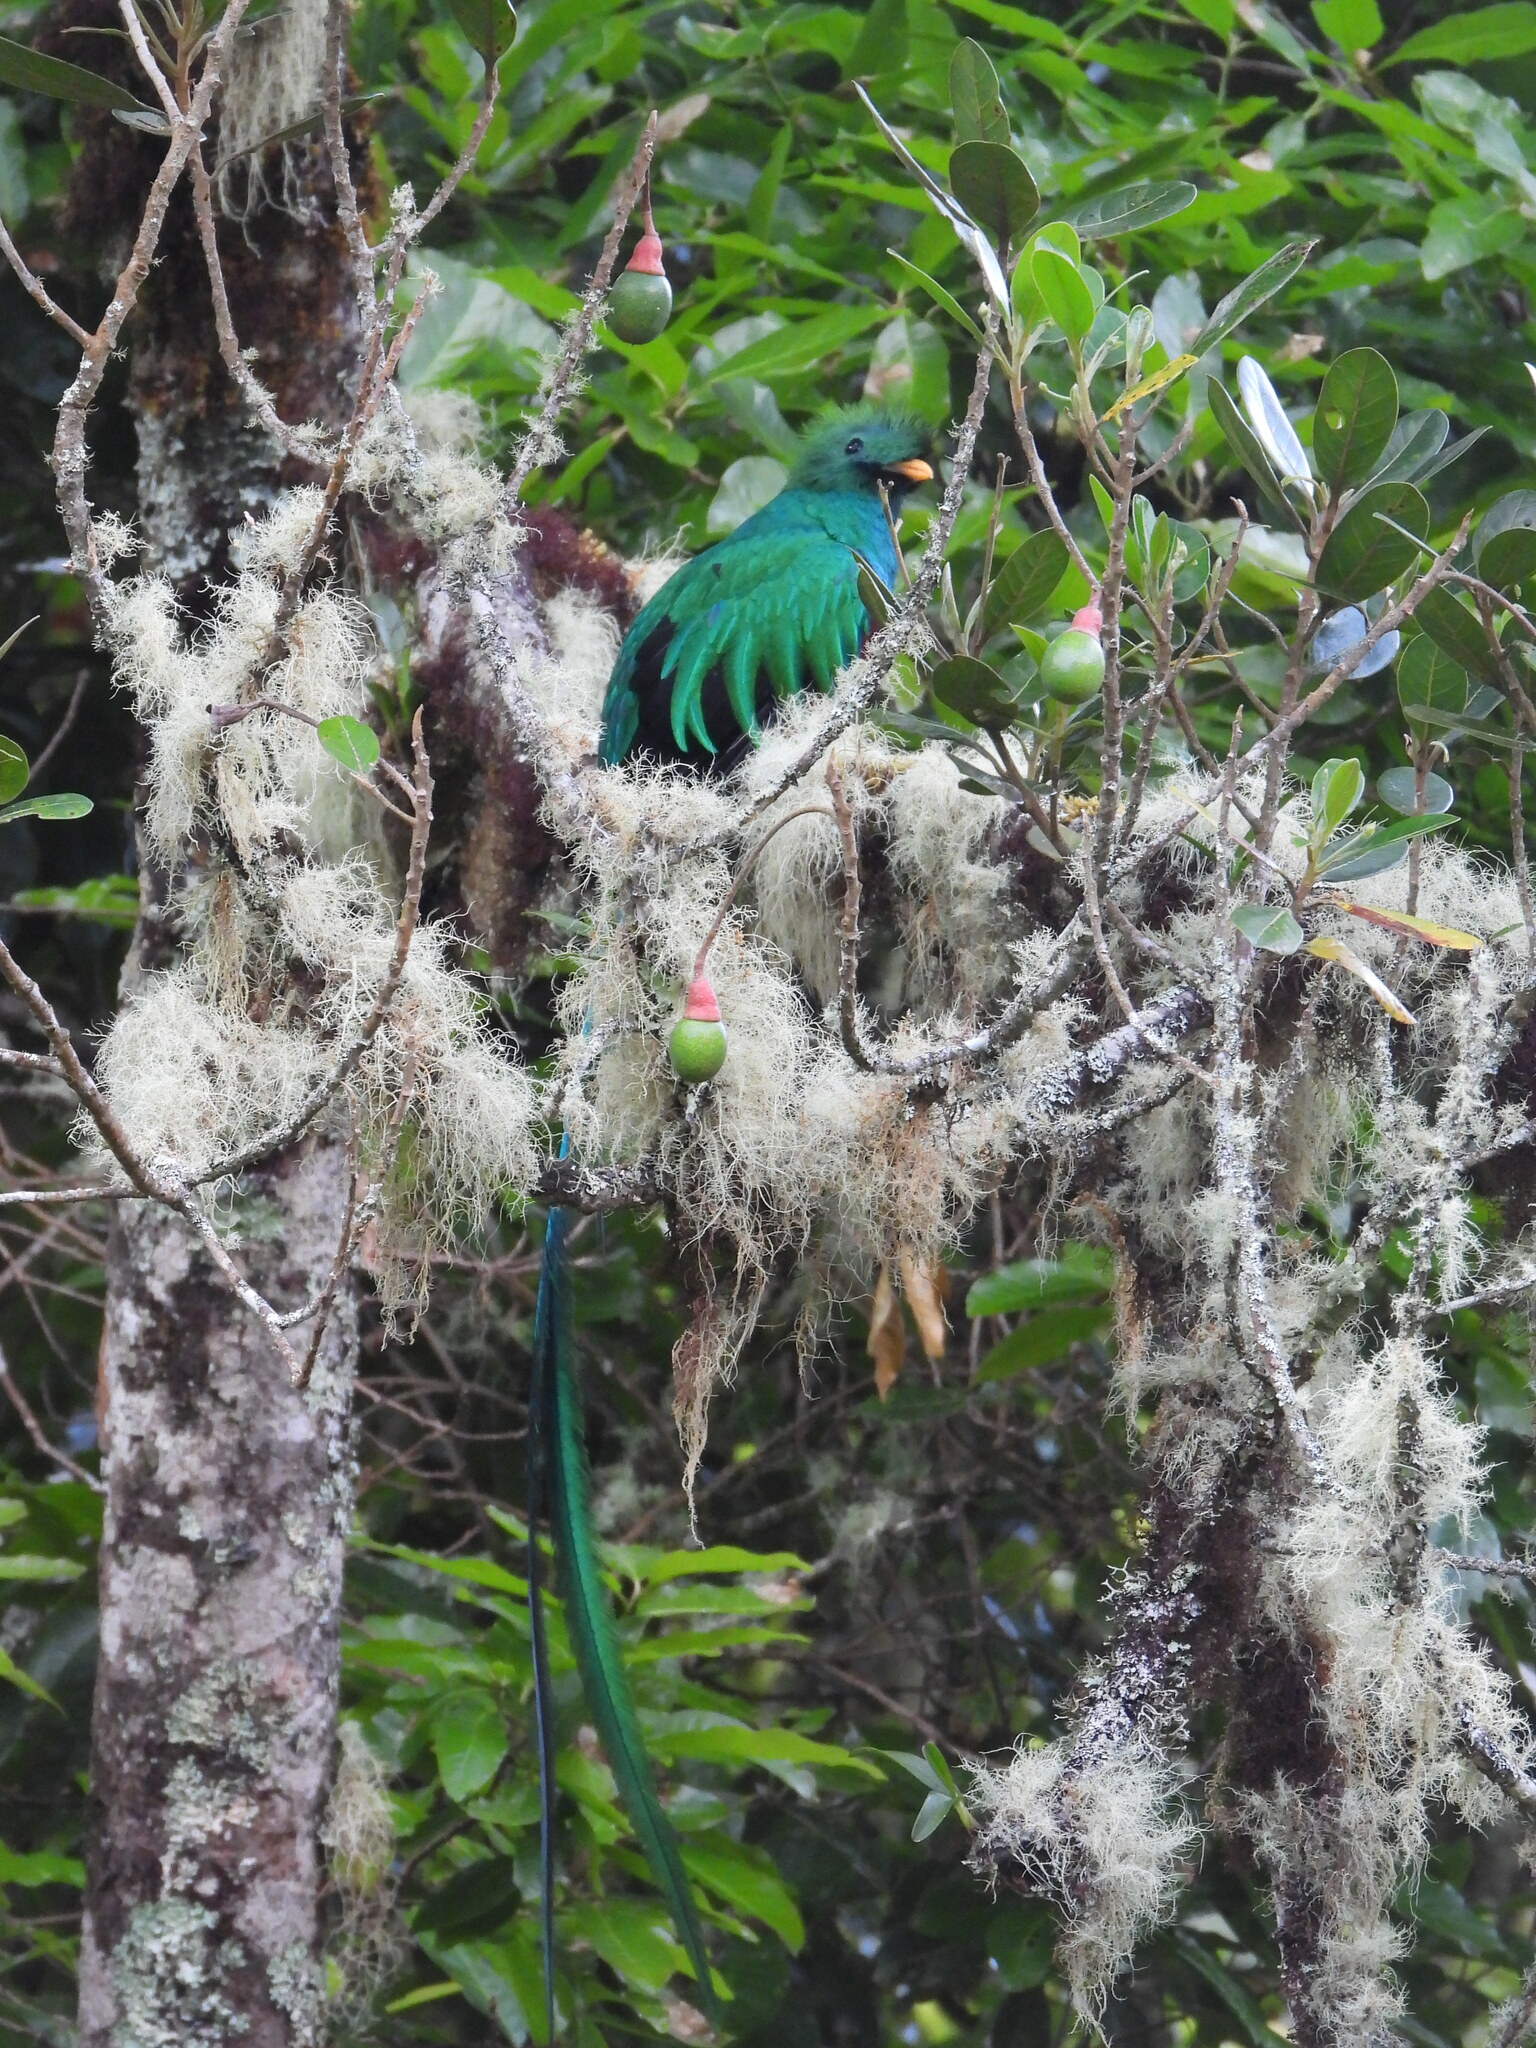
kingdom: Animalia
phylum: Chordata
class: Aves
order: Trogoniformes
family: Trogonidae
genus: Pharomachrus
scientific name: Pharomachrus mocinno
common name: Resplendent quetzal
